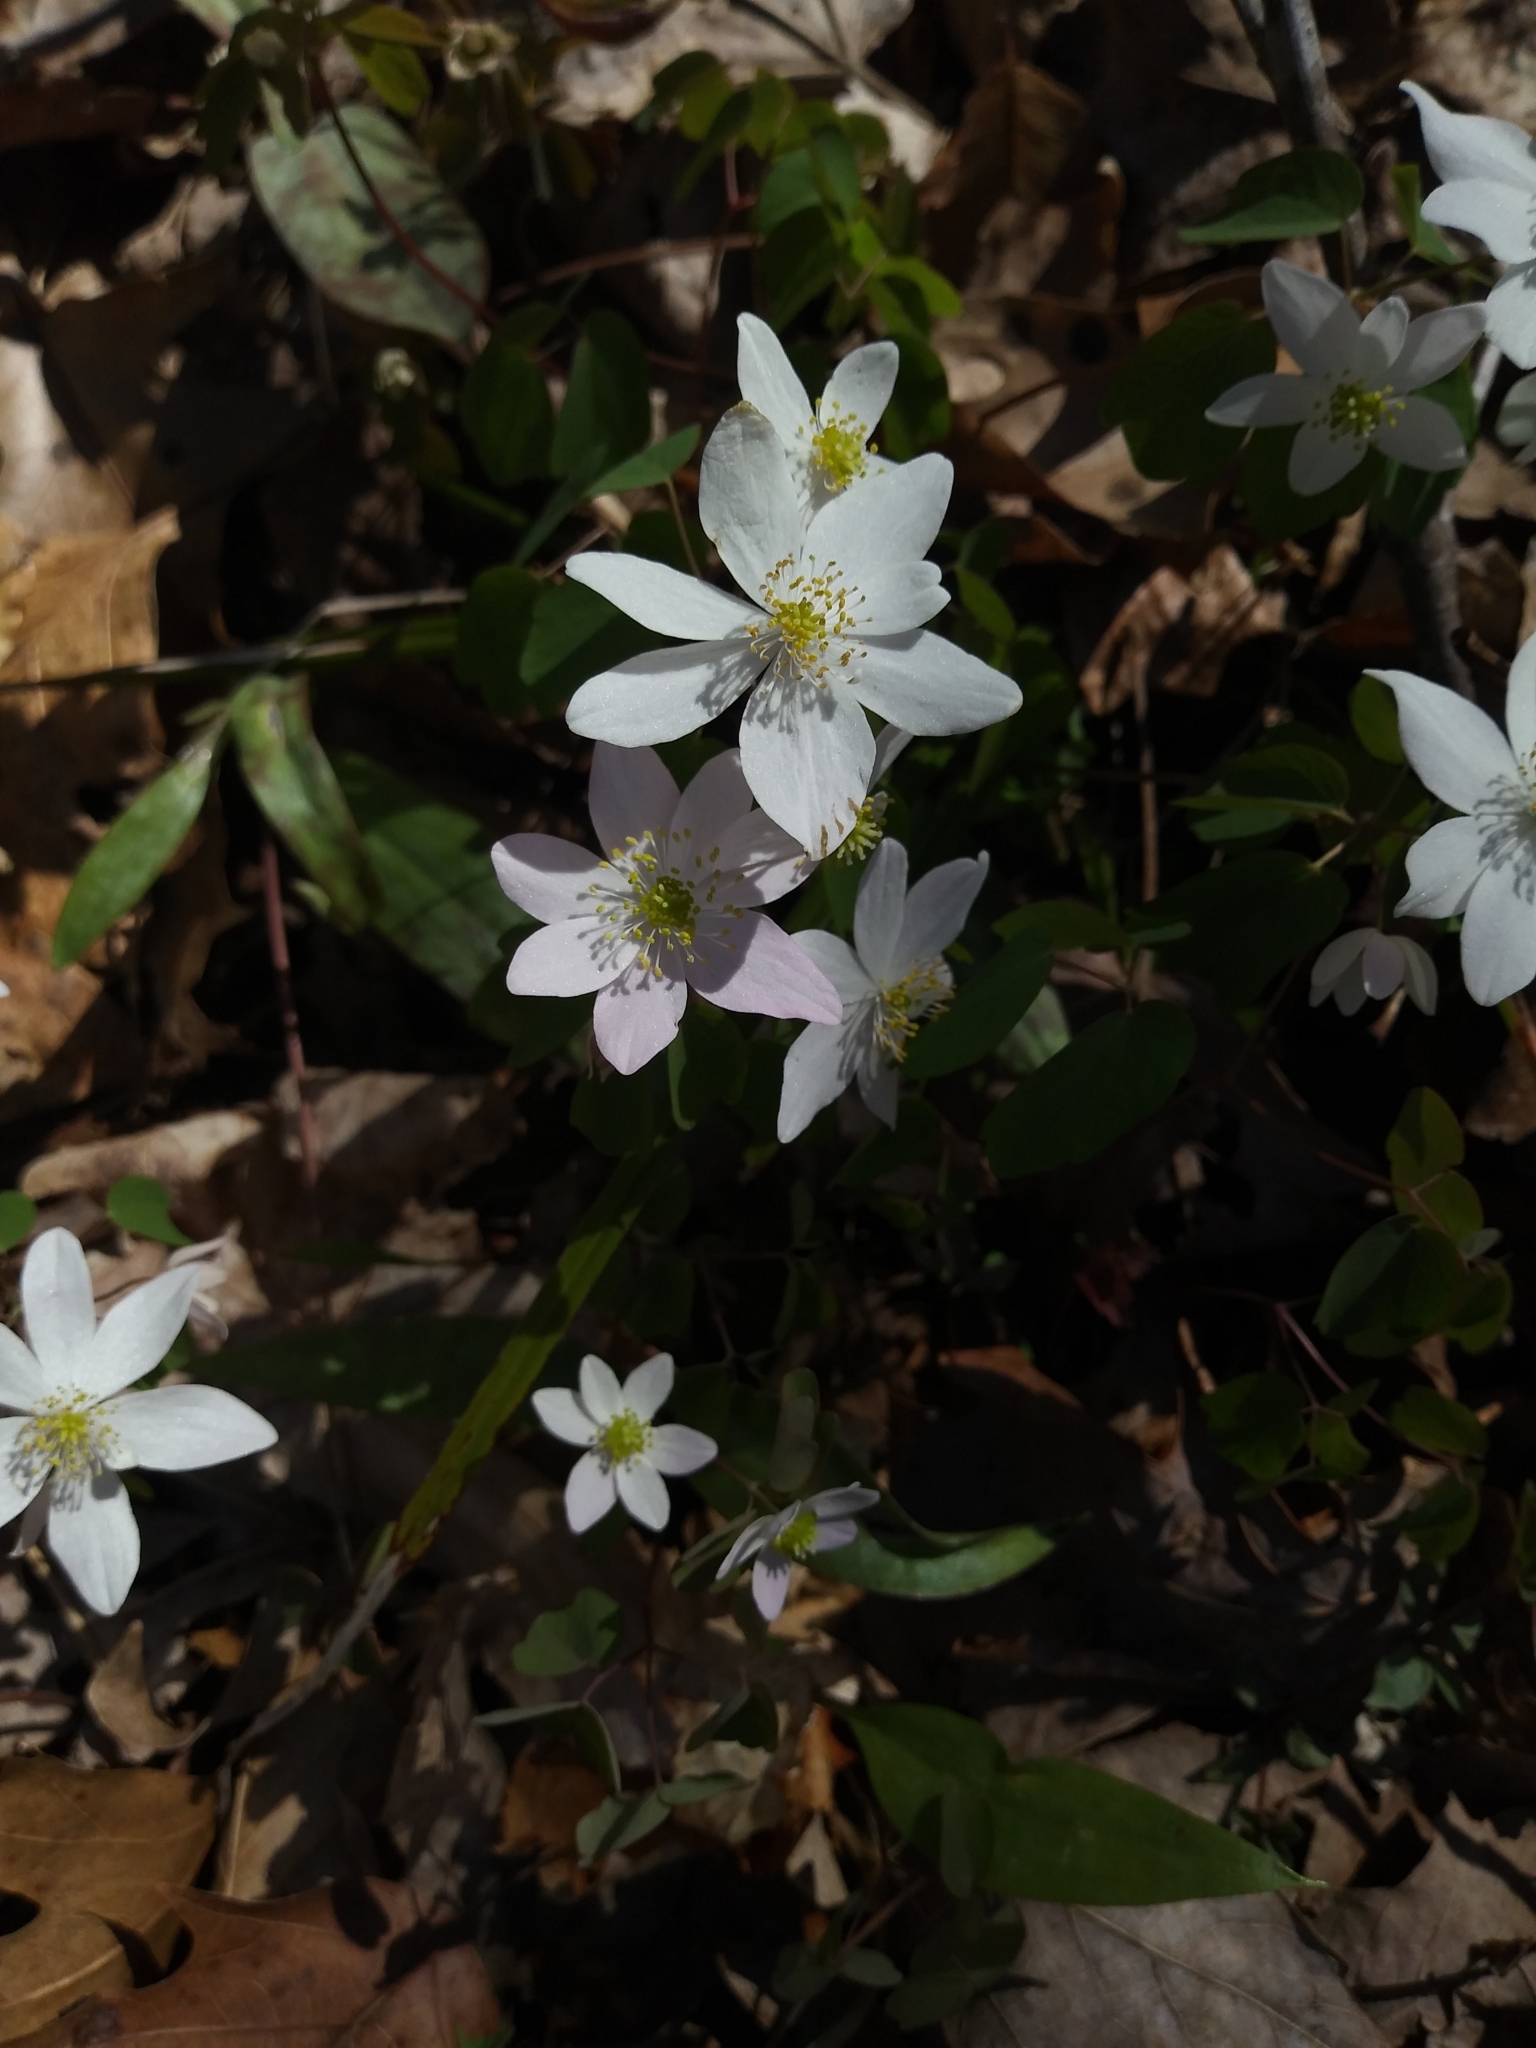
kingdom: Plantae
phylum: Tracheophyta
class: Magnoliopsida
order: Ranunculales
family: Ranunculaceae
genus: Thalictrum
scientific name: Thalictrum thalictroides
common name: Rue-anemone
